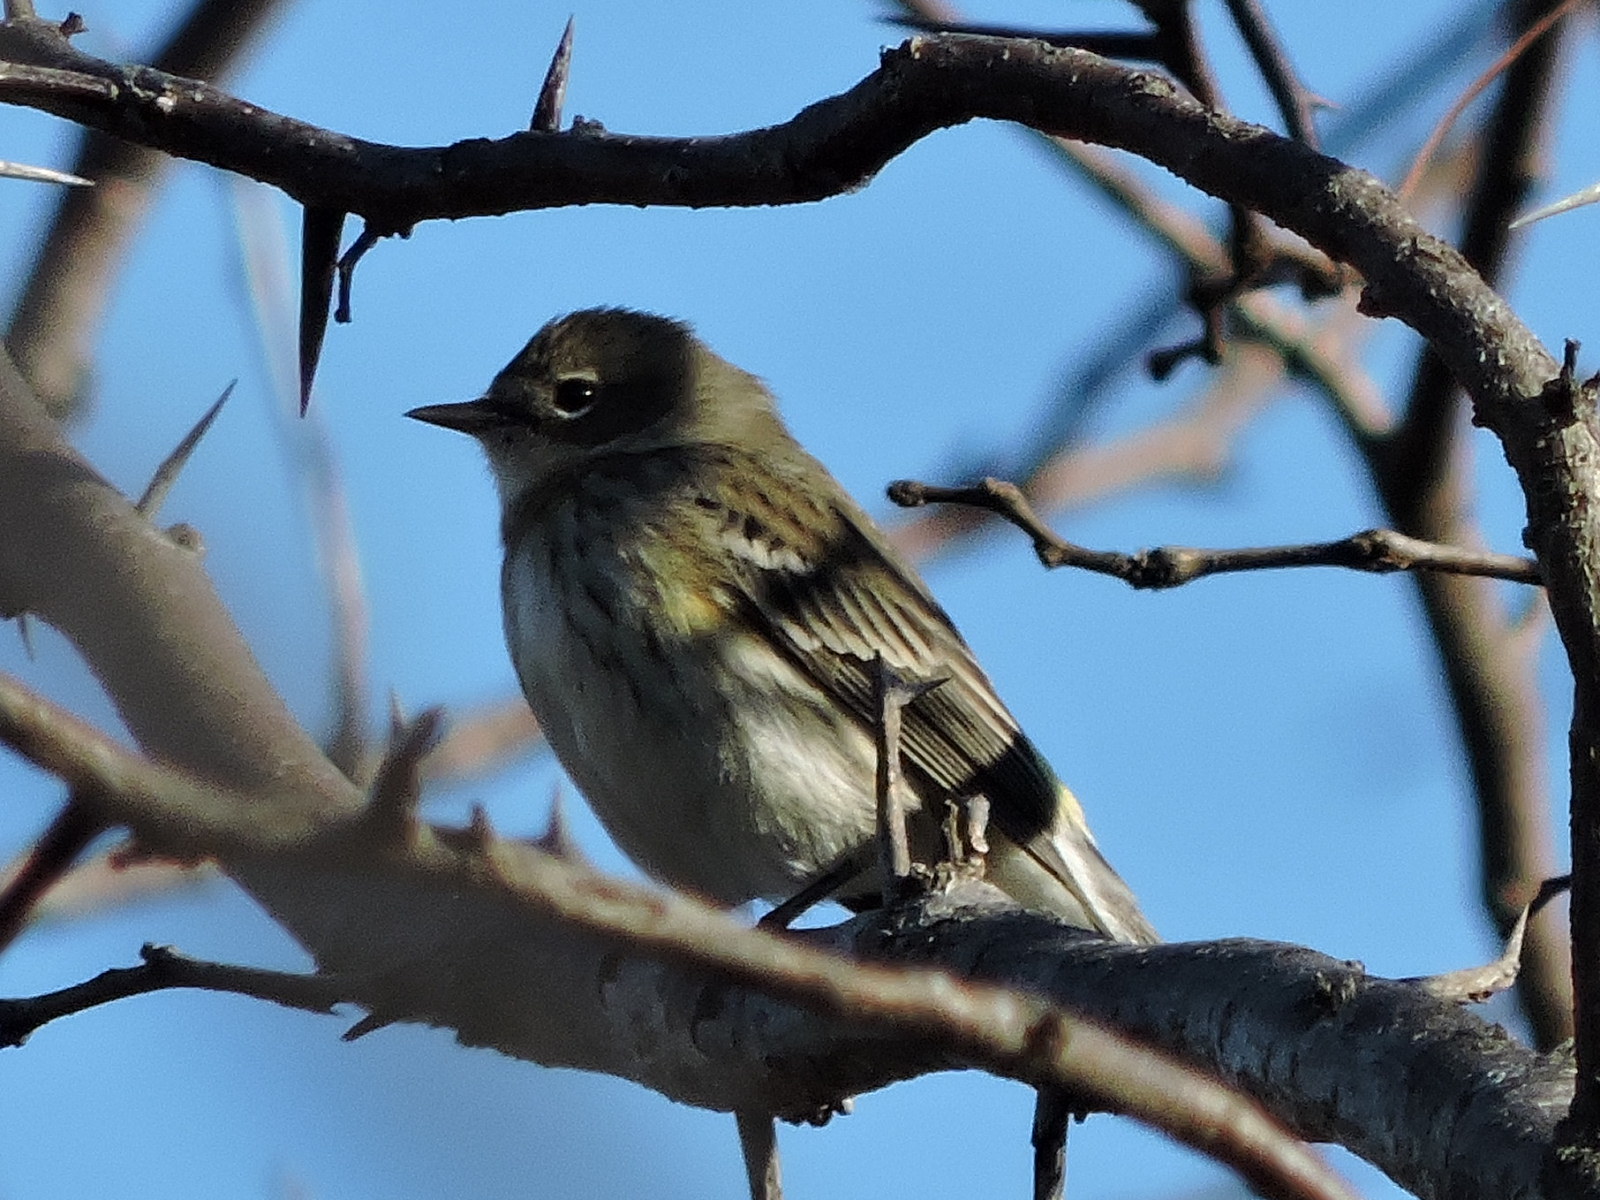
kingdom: Animalia
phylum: Chordata
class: Aves
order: Passeriformes
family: Parulidae
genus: Setophaga
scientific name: Setophaga coronata
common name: Myrtle warbler
